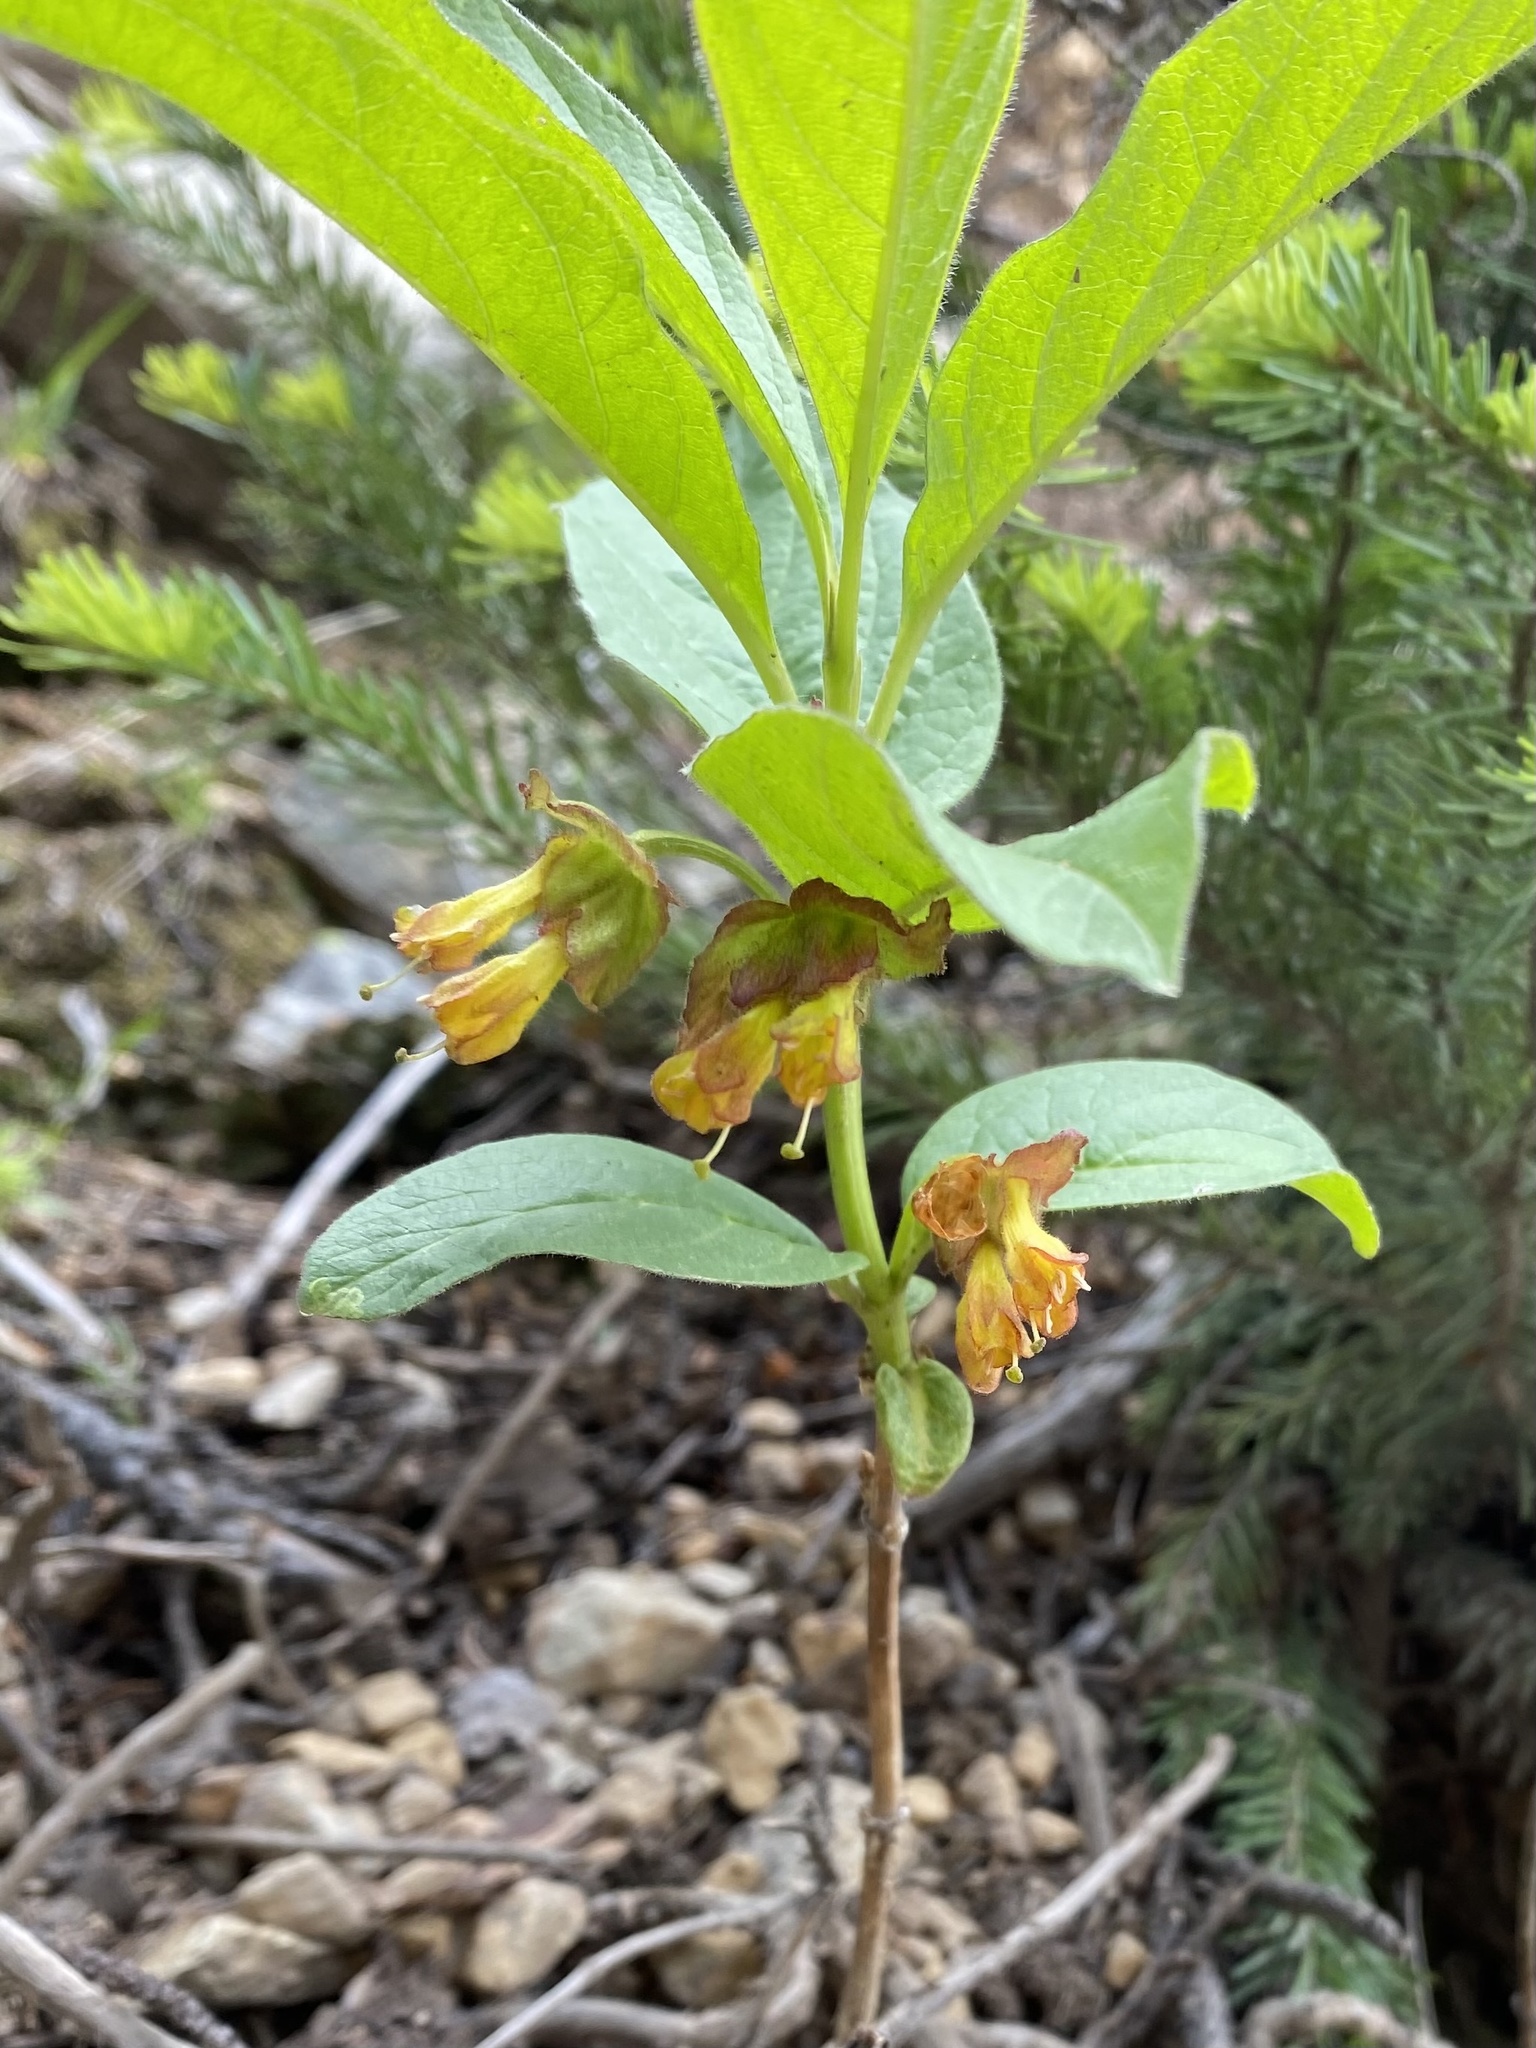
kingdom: Plantae
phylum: Tracheophyta
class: Magnoliopsida
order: Dipsacales
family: Caprifoliaceae
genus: Lonicera
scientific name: Lonicera involucrata
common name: Californian honeysuckle
